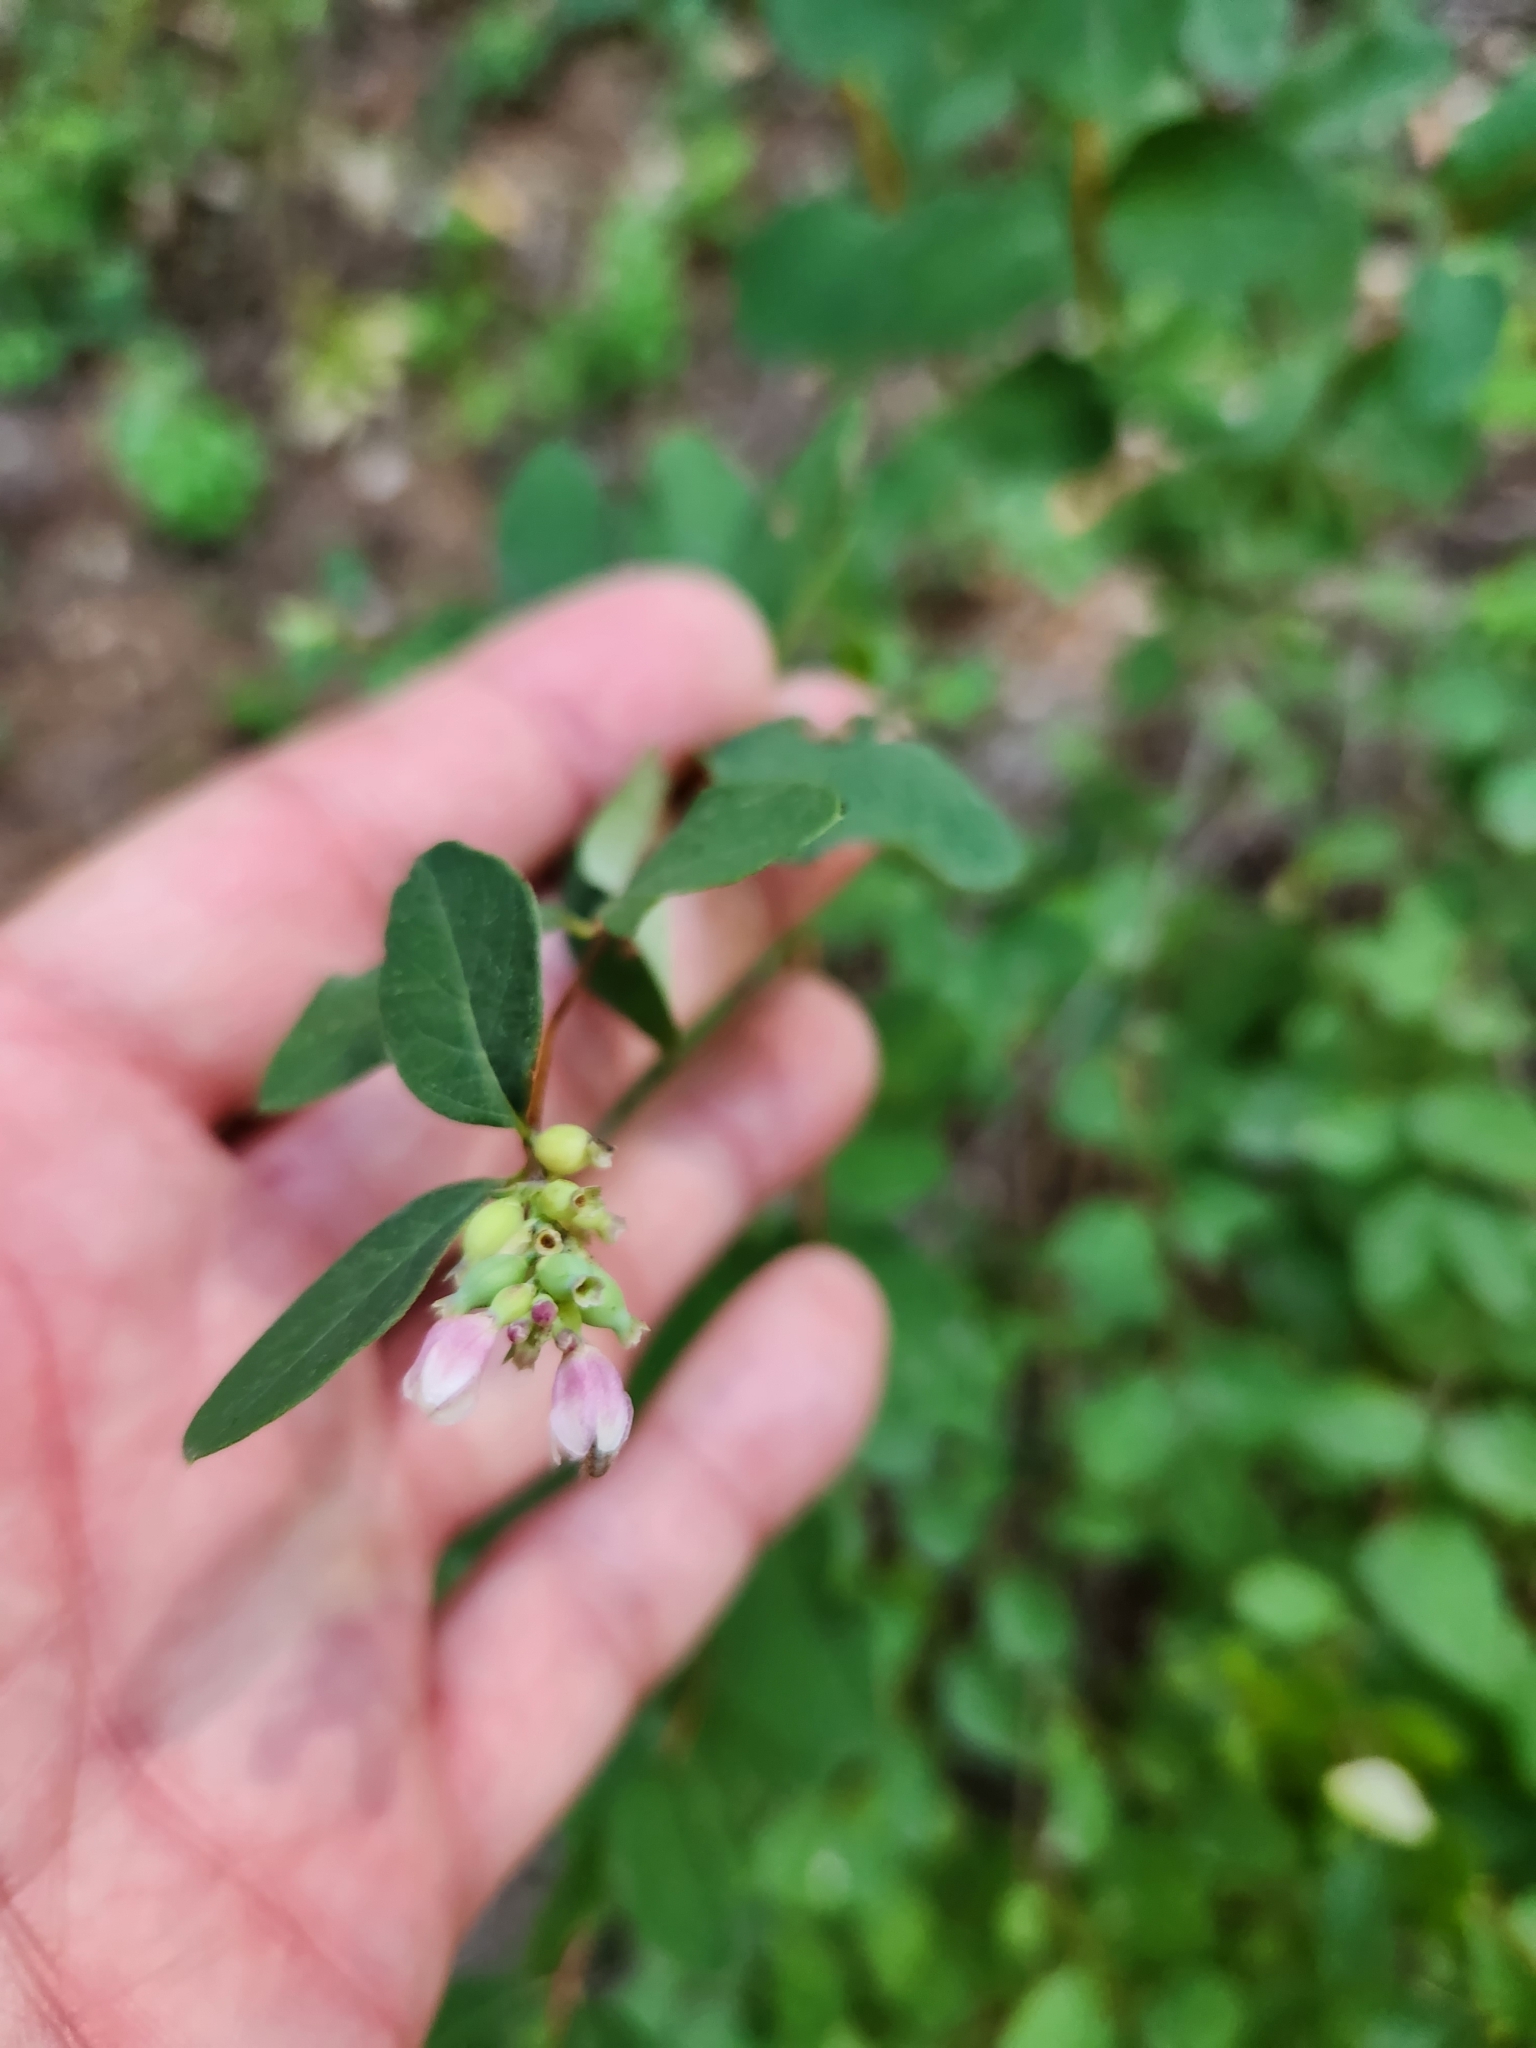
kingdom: Plantae
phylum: Tracheophyta
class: Magnoliopsida
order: Dipsacales
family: Caprifoliaceae
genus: Symphoricarpos
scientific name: Symphoricarpos albus
